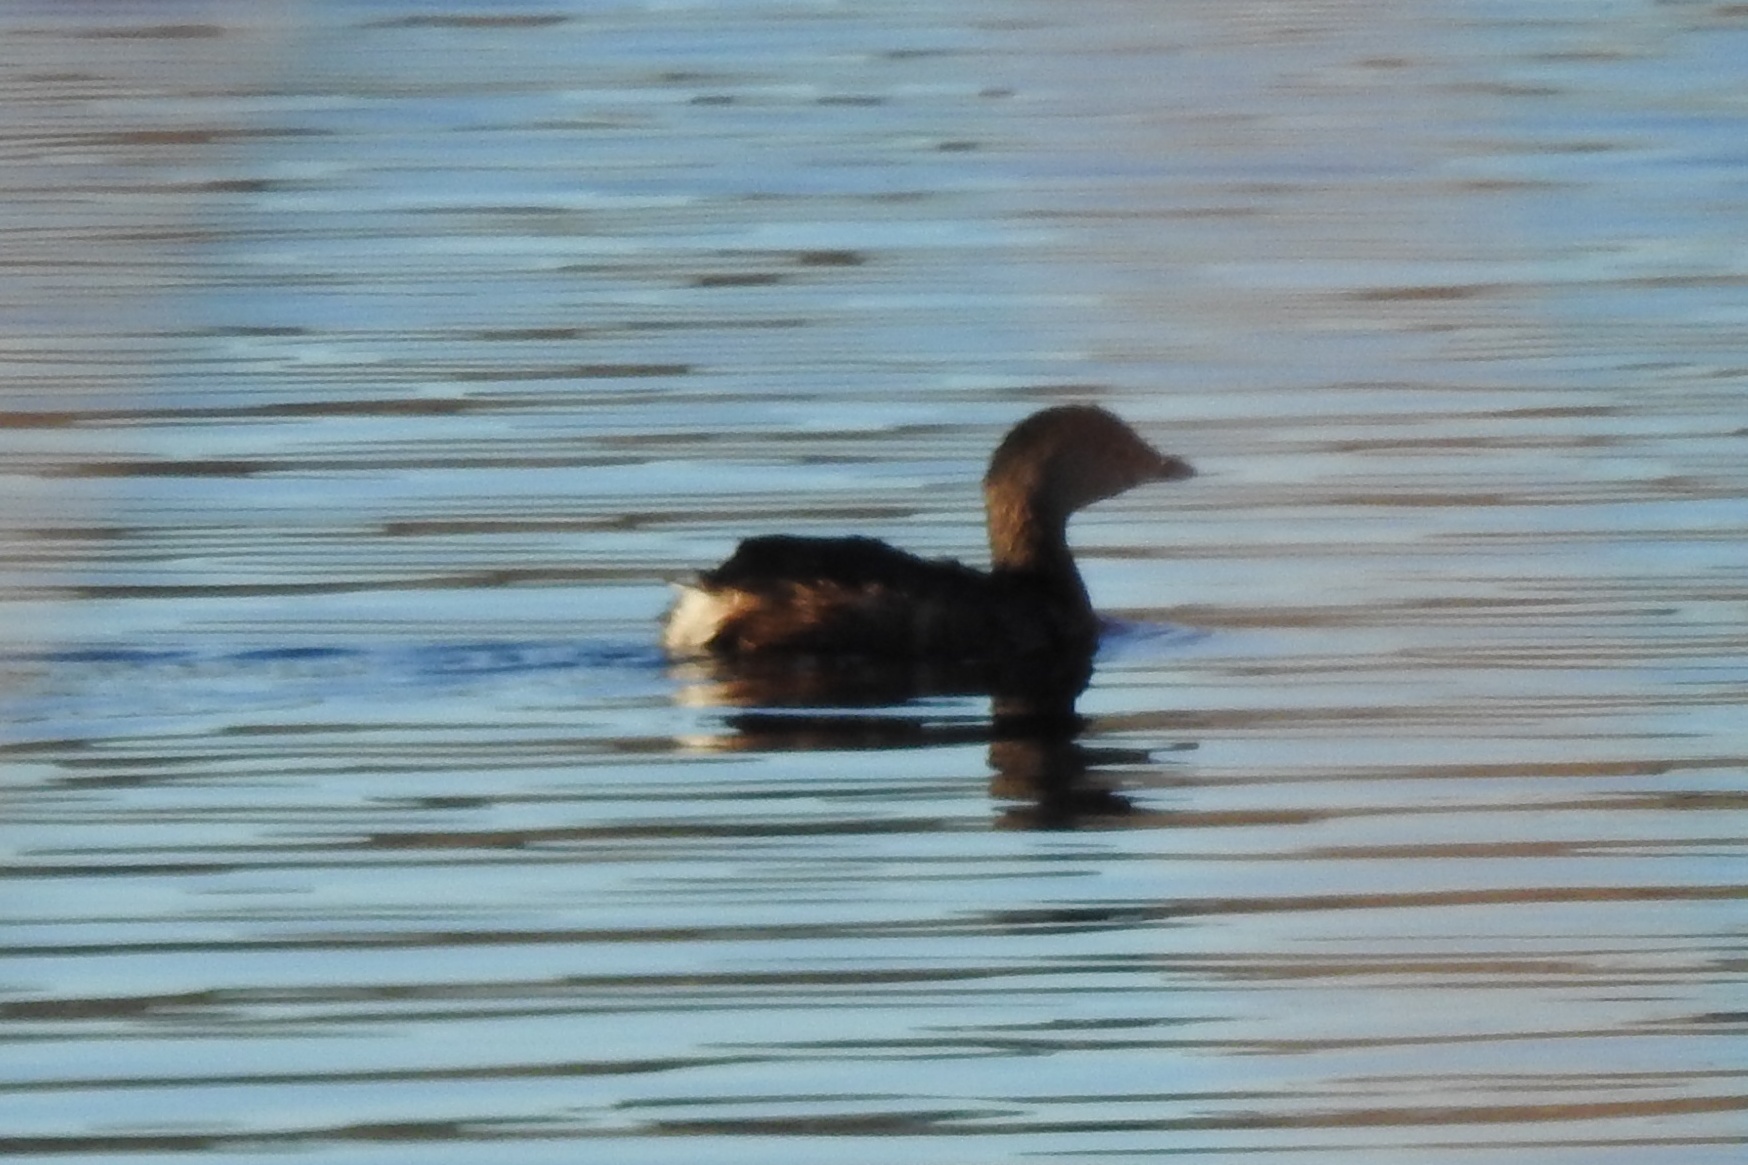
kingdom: Animalia
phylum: Chordata
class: Aves
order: Podicipediformes
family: Podicipedidae
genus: Podilymbus
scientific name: Podilymbus podiceps
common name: Pied-billed grebe
